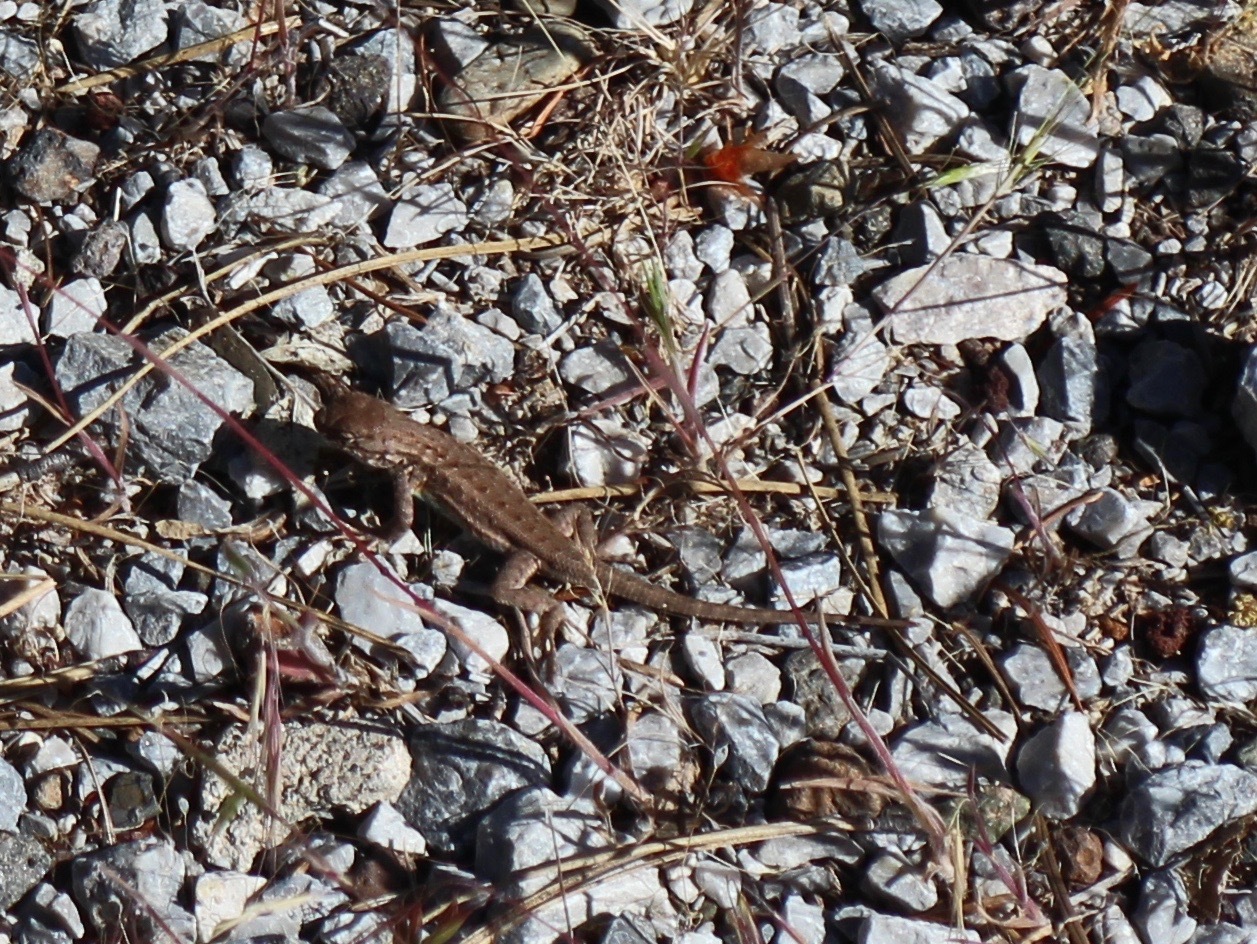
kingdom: Animalia
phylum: Chordata
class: Squamata
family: Phrynosomatidae
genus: Sceloporus
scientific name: Sceloporus graciosus
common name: Sagebrush lizard
